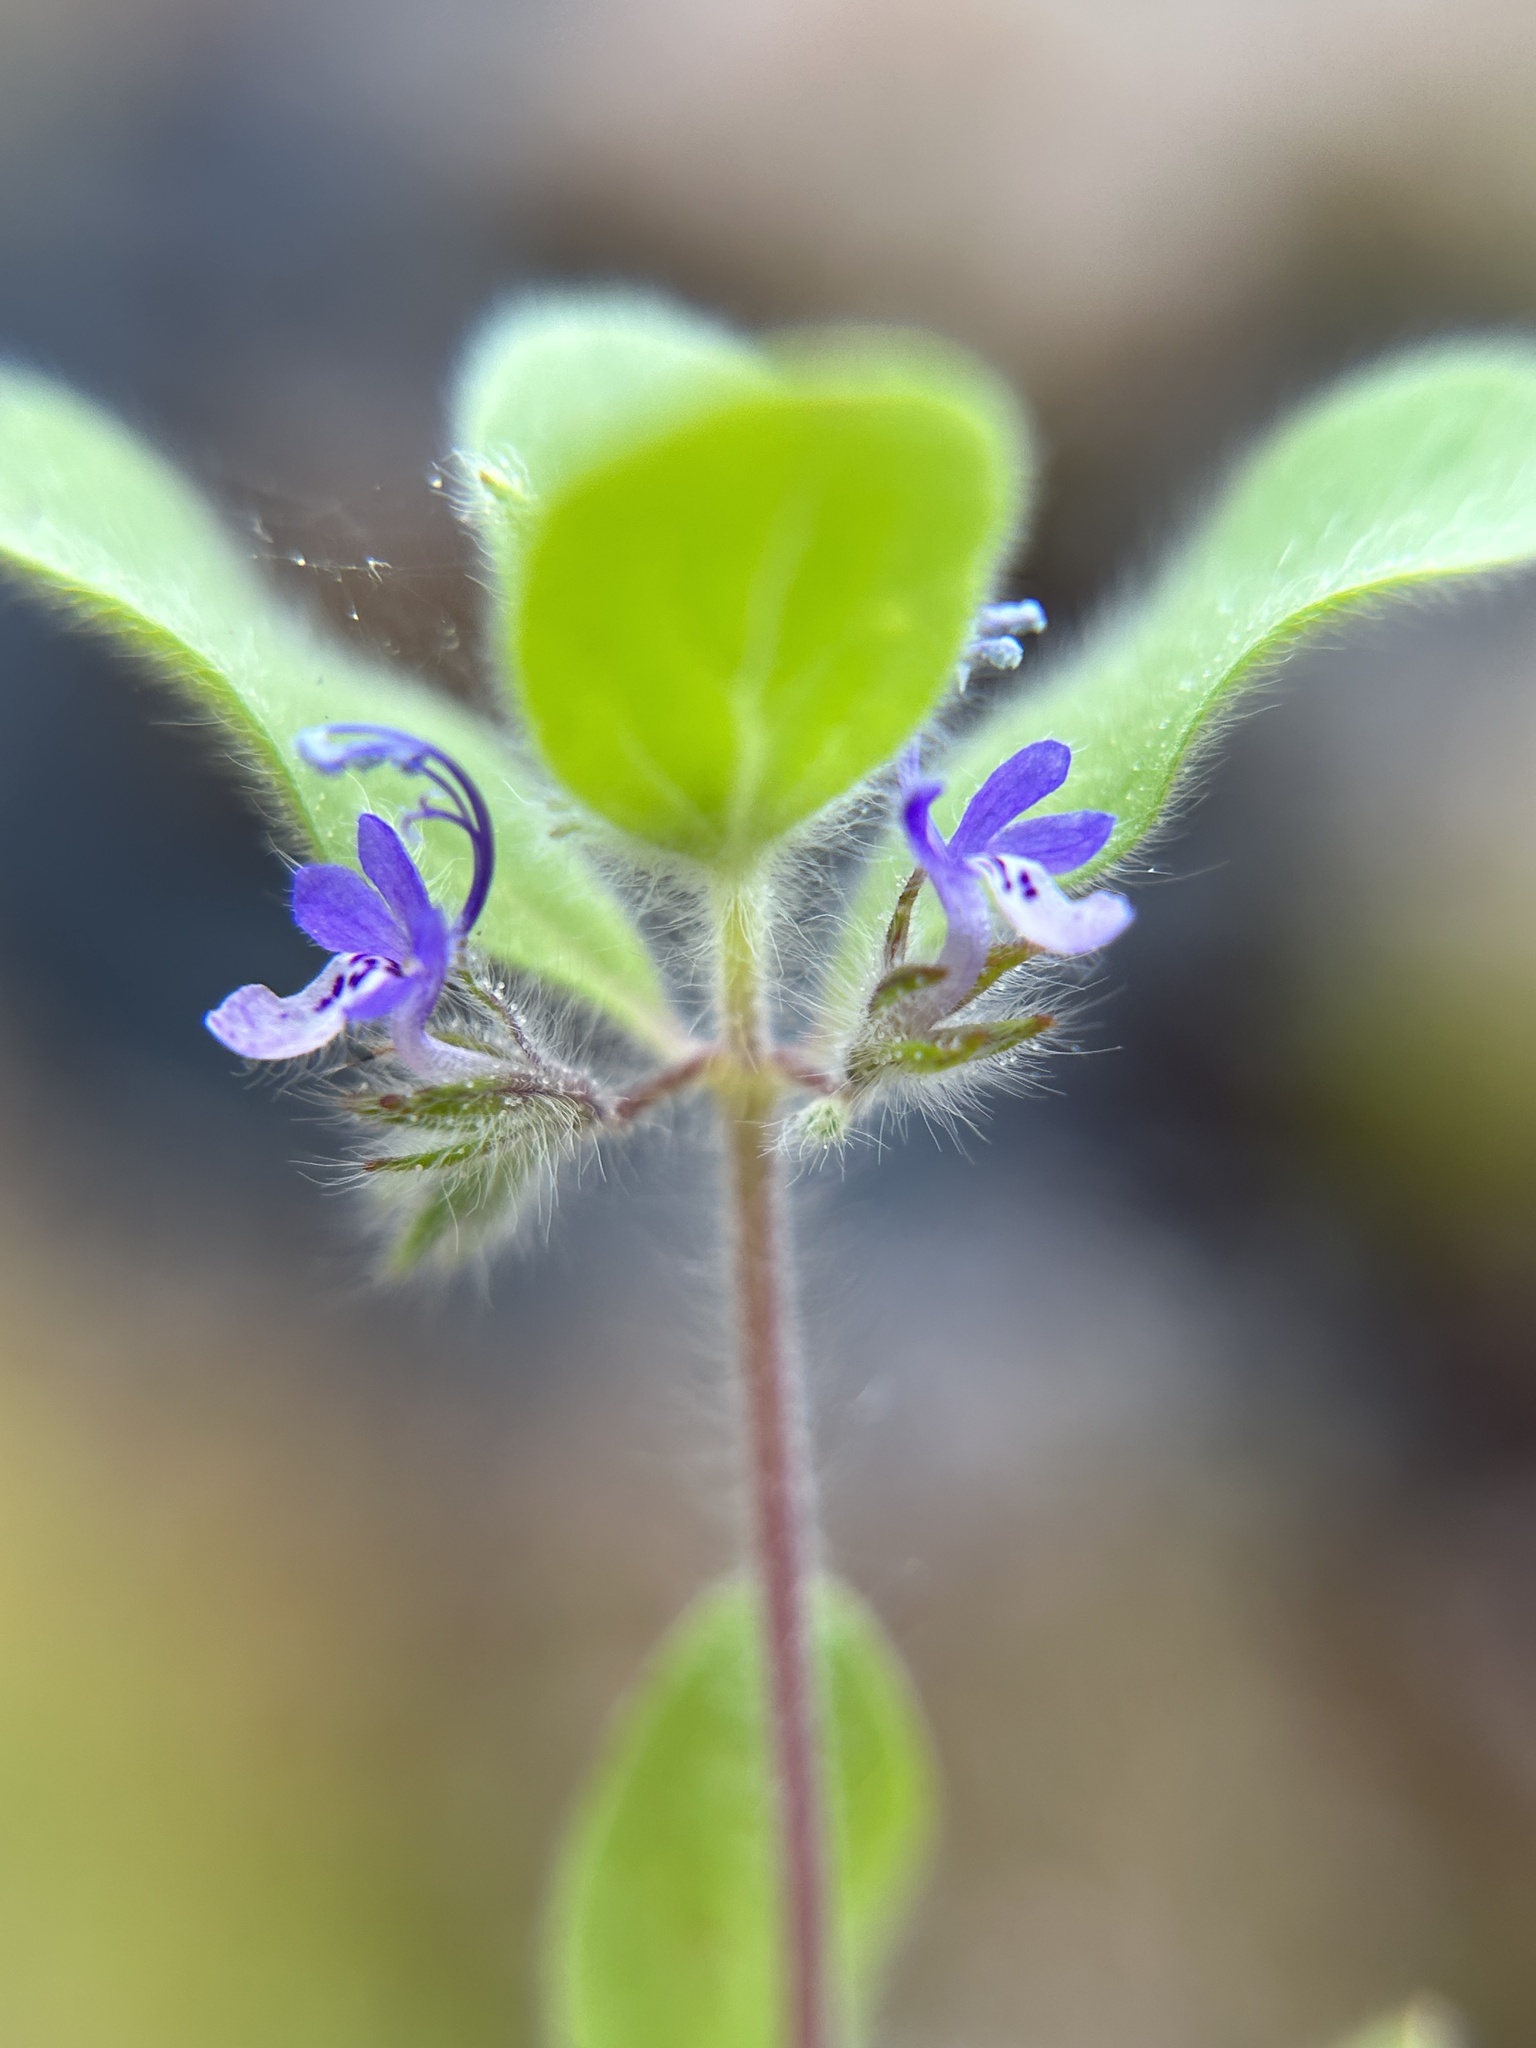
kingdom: Plantae
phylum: Tracheophyta
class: Magnoliopsida
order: Lamiales
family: Lamiaceae
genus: Trichostema
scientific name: Trichostema oblongum
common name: Mountain bluecurls
